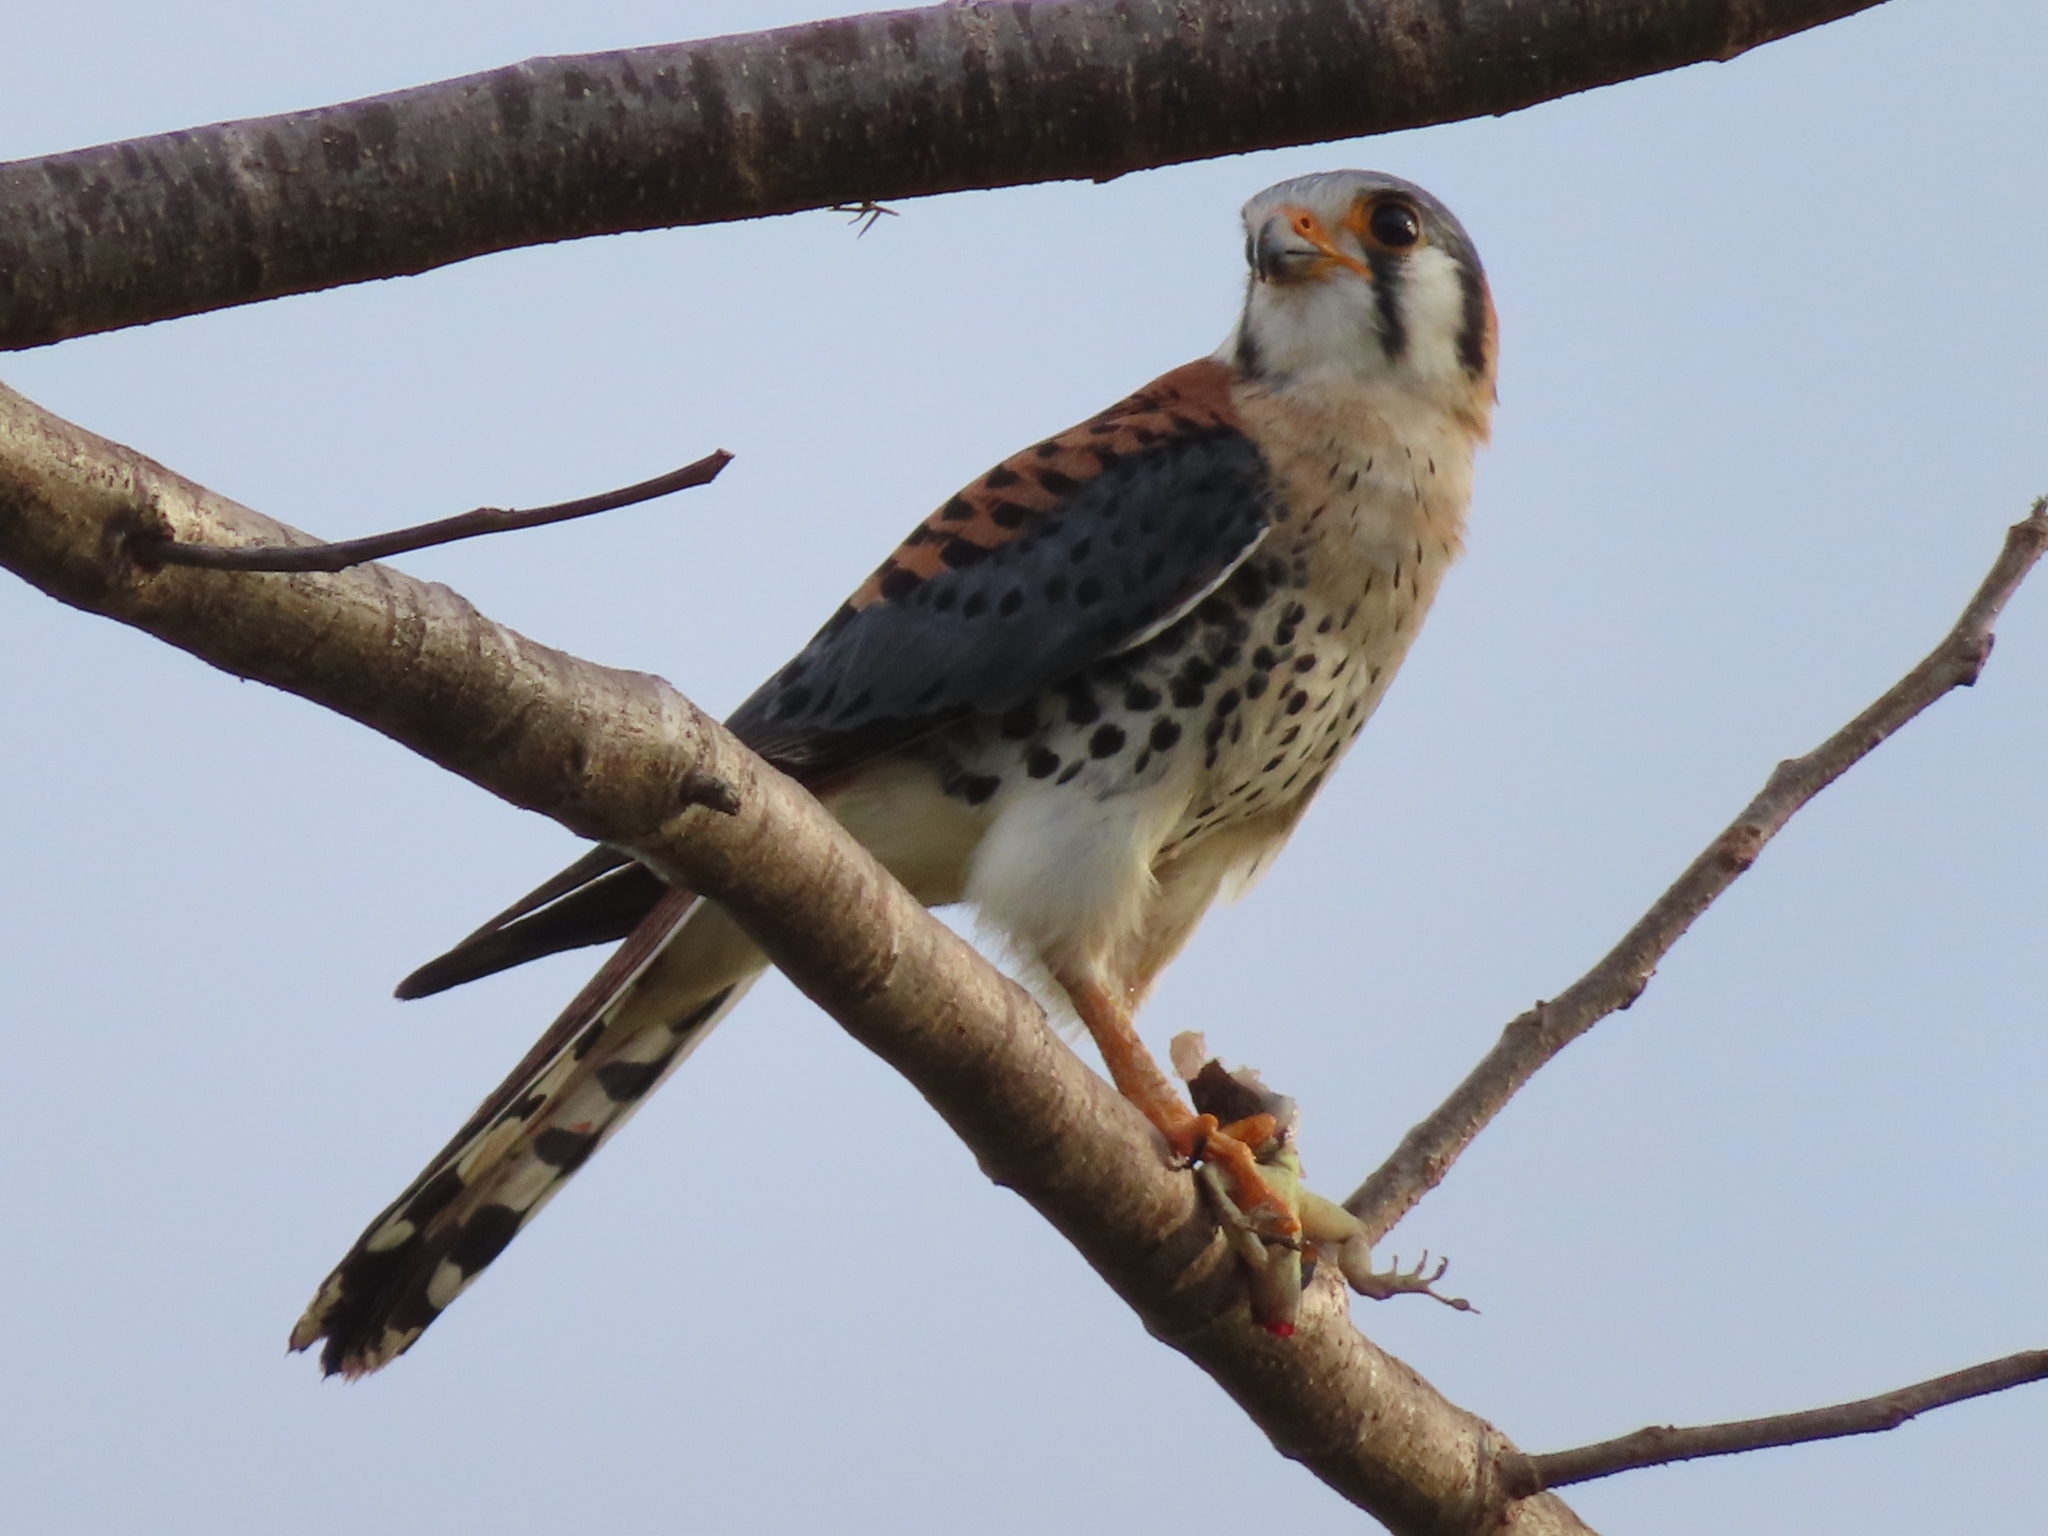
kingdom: Animalia
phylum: Chordata
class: Aves
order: Falconiformes
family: Falconidae
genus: Falco
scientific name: Falco sparverius
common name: American kestrel
